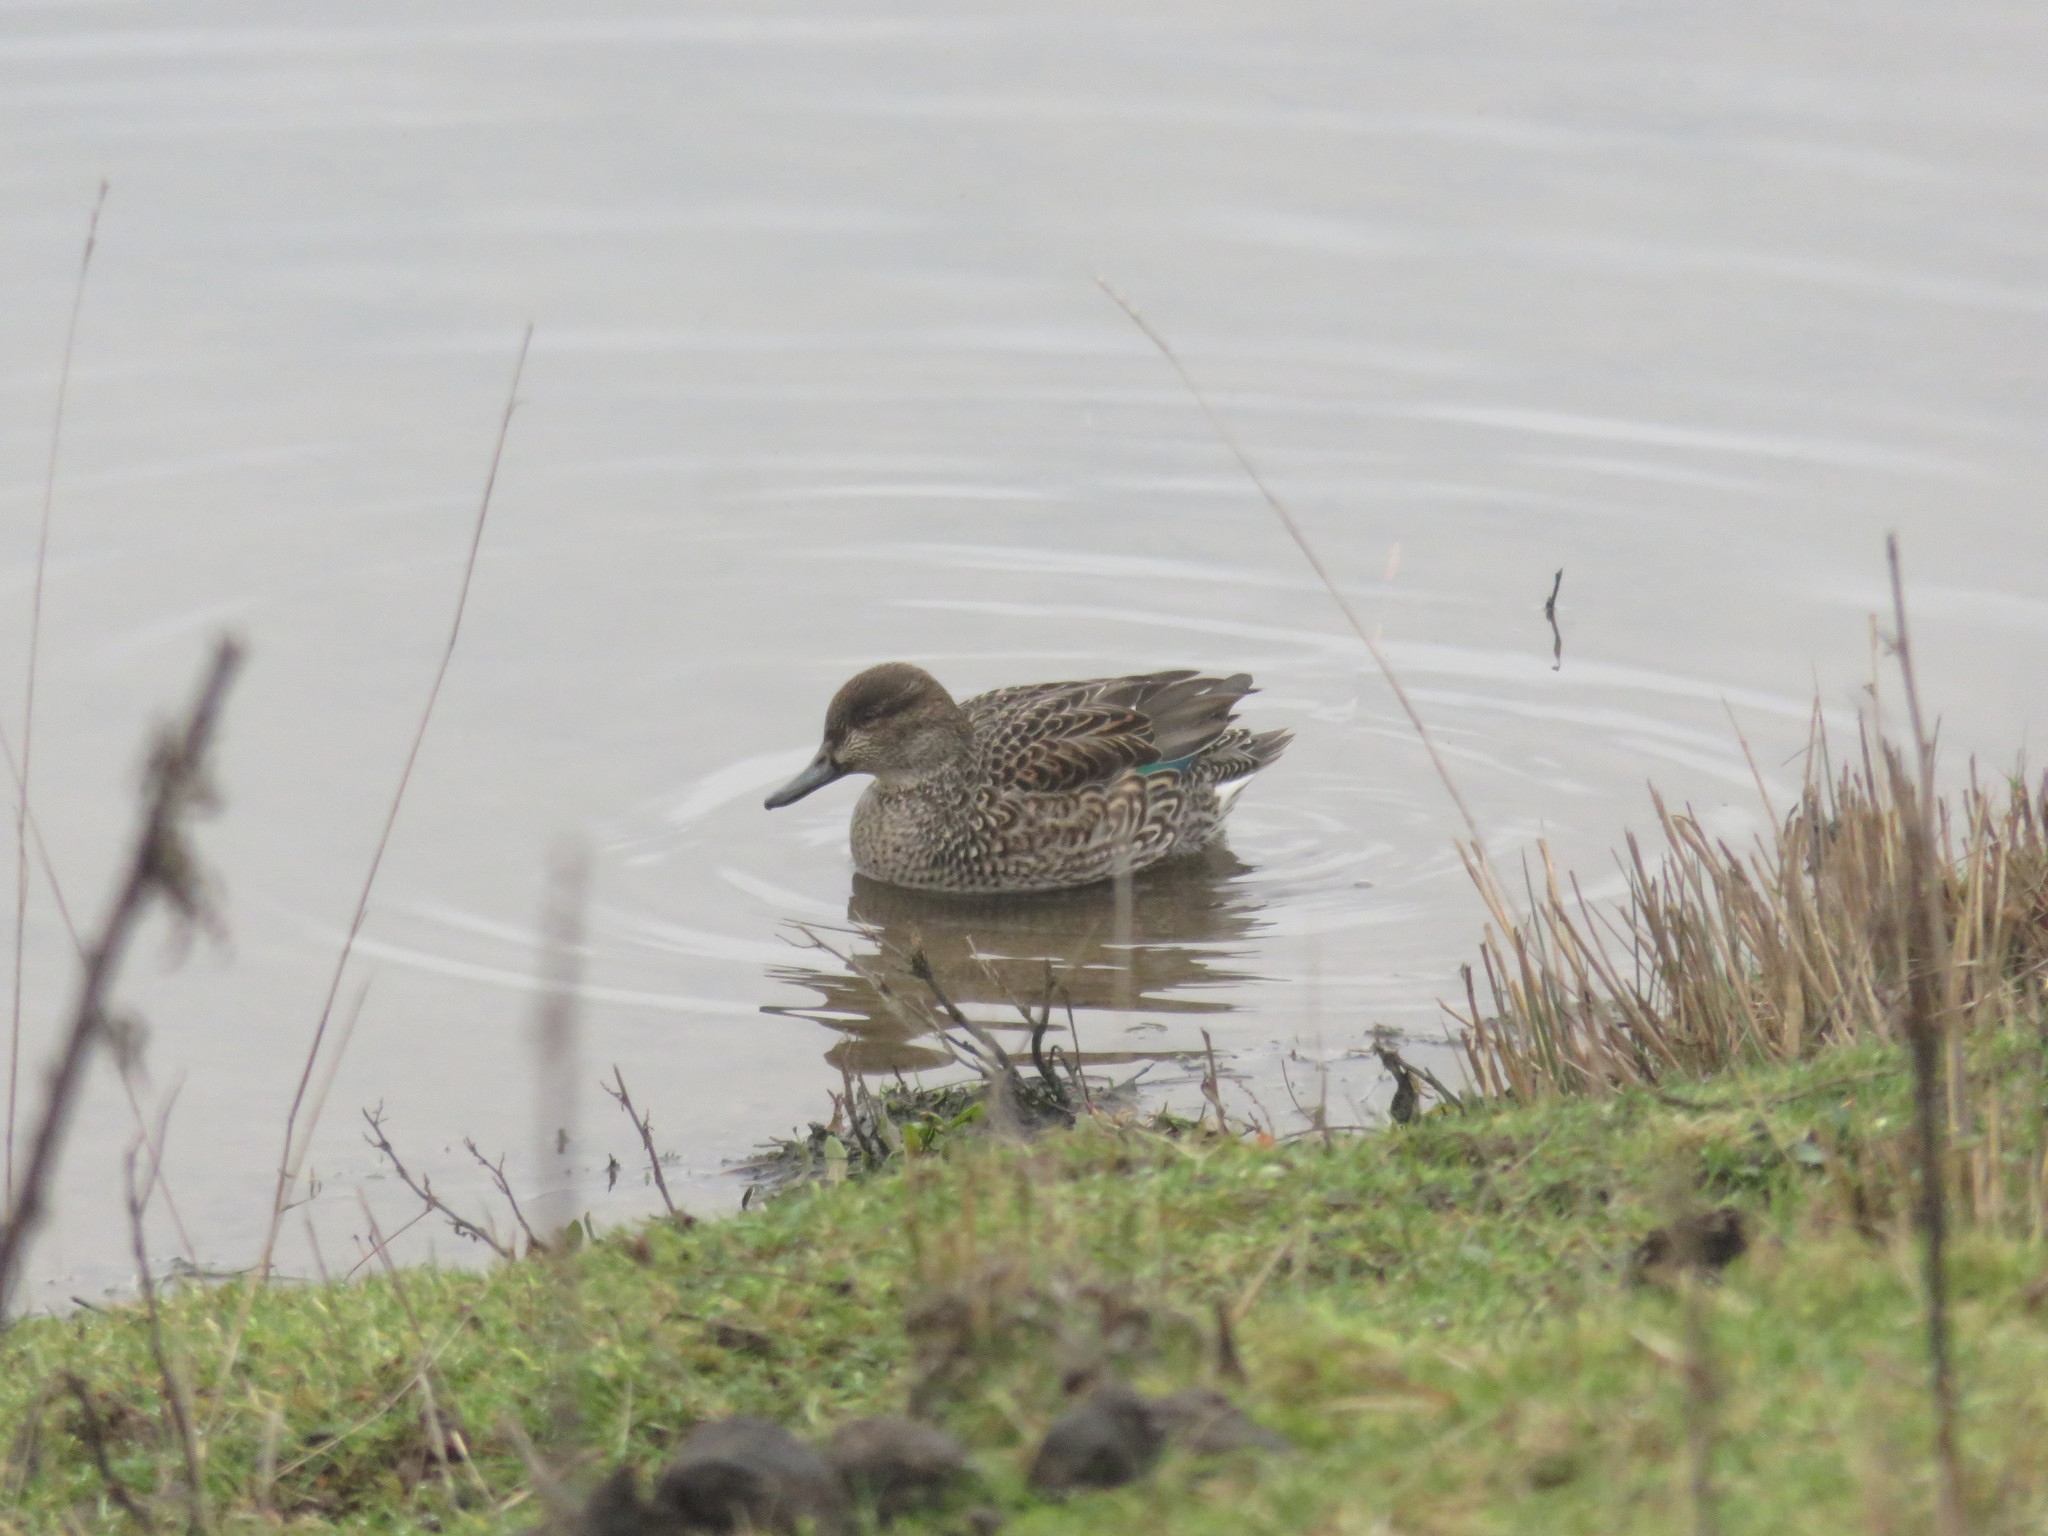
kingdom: Animalia
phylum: Chordata
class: Aves
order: Anseriformes
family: Anatidae
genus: Anas
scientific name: Anas crecca
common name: Eurasian teal
